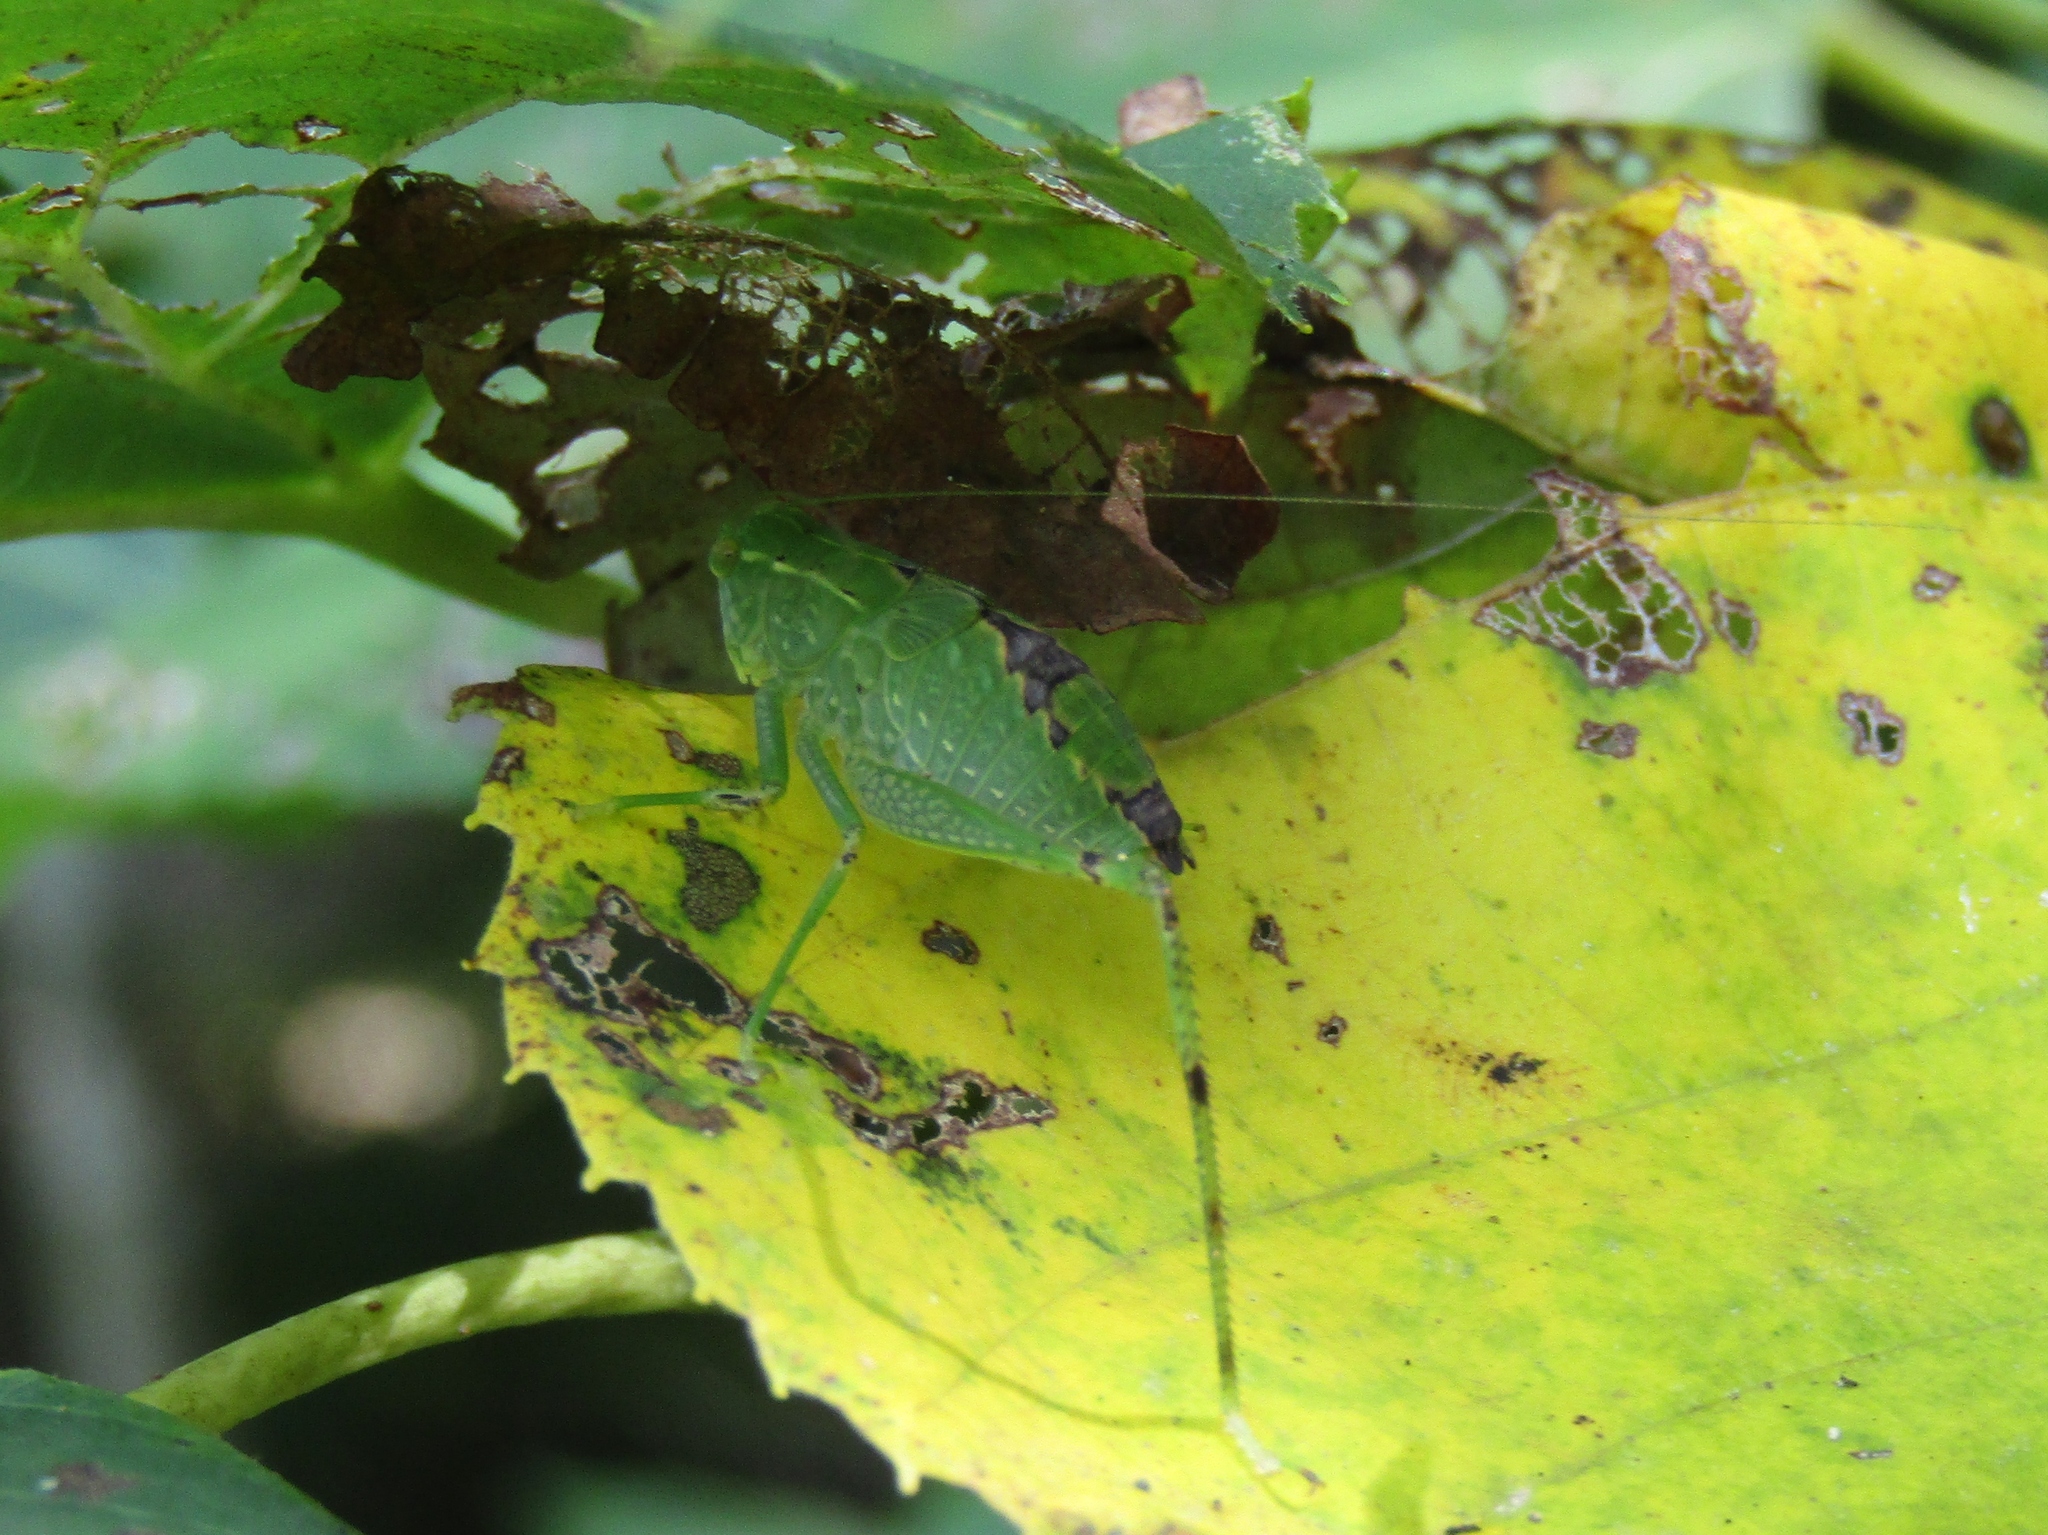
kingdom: Animalia
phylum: Arthropoda
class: Insecta
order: Orthoptera
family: Tettigoniidae
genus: Microcentrum
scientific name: Microcentrum retinerve
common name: Angular-winged katydid
